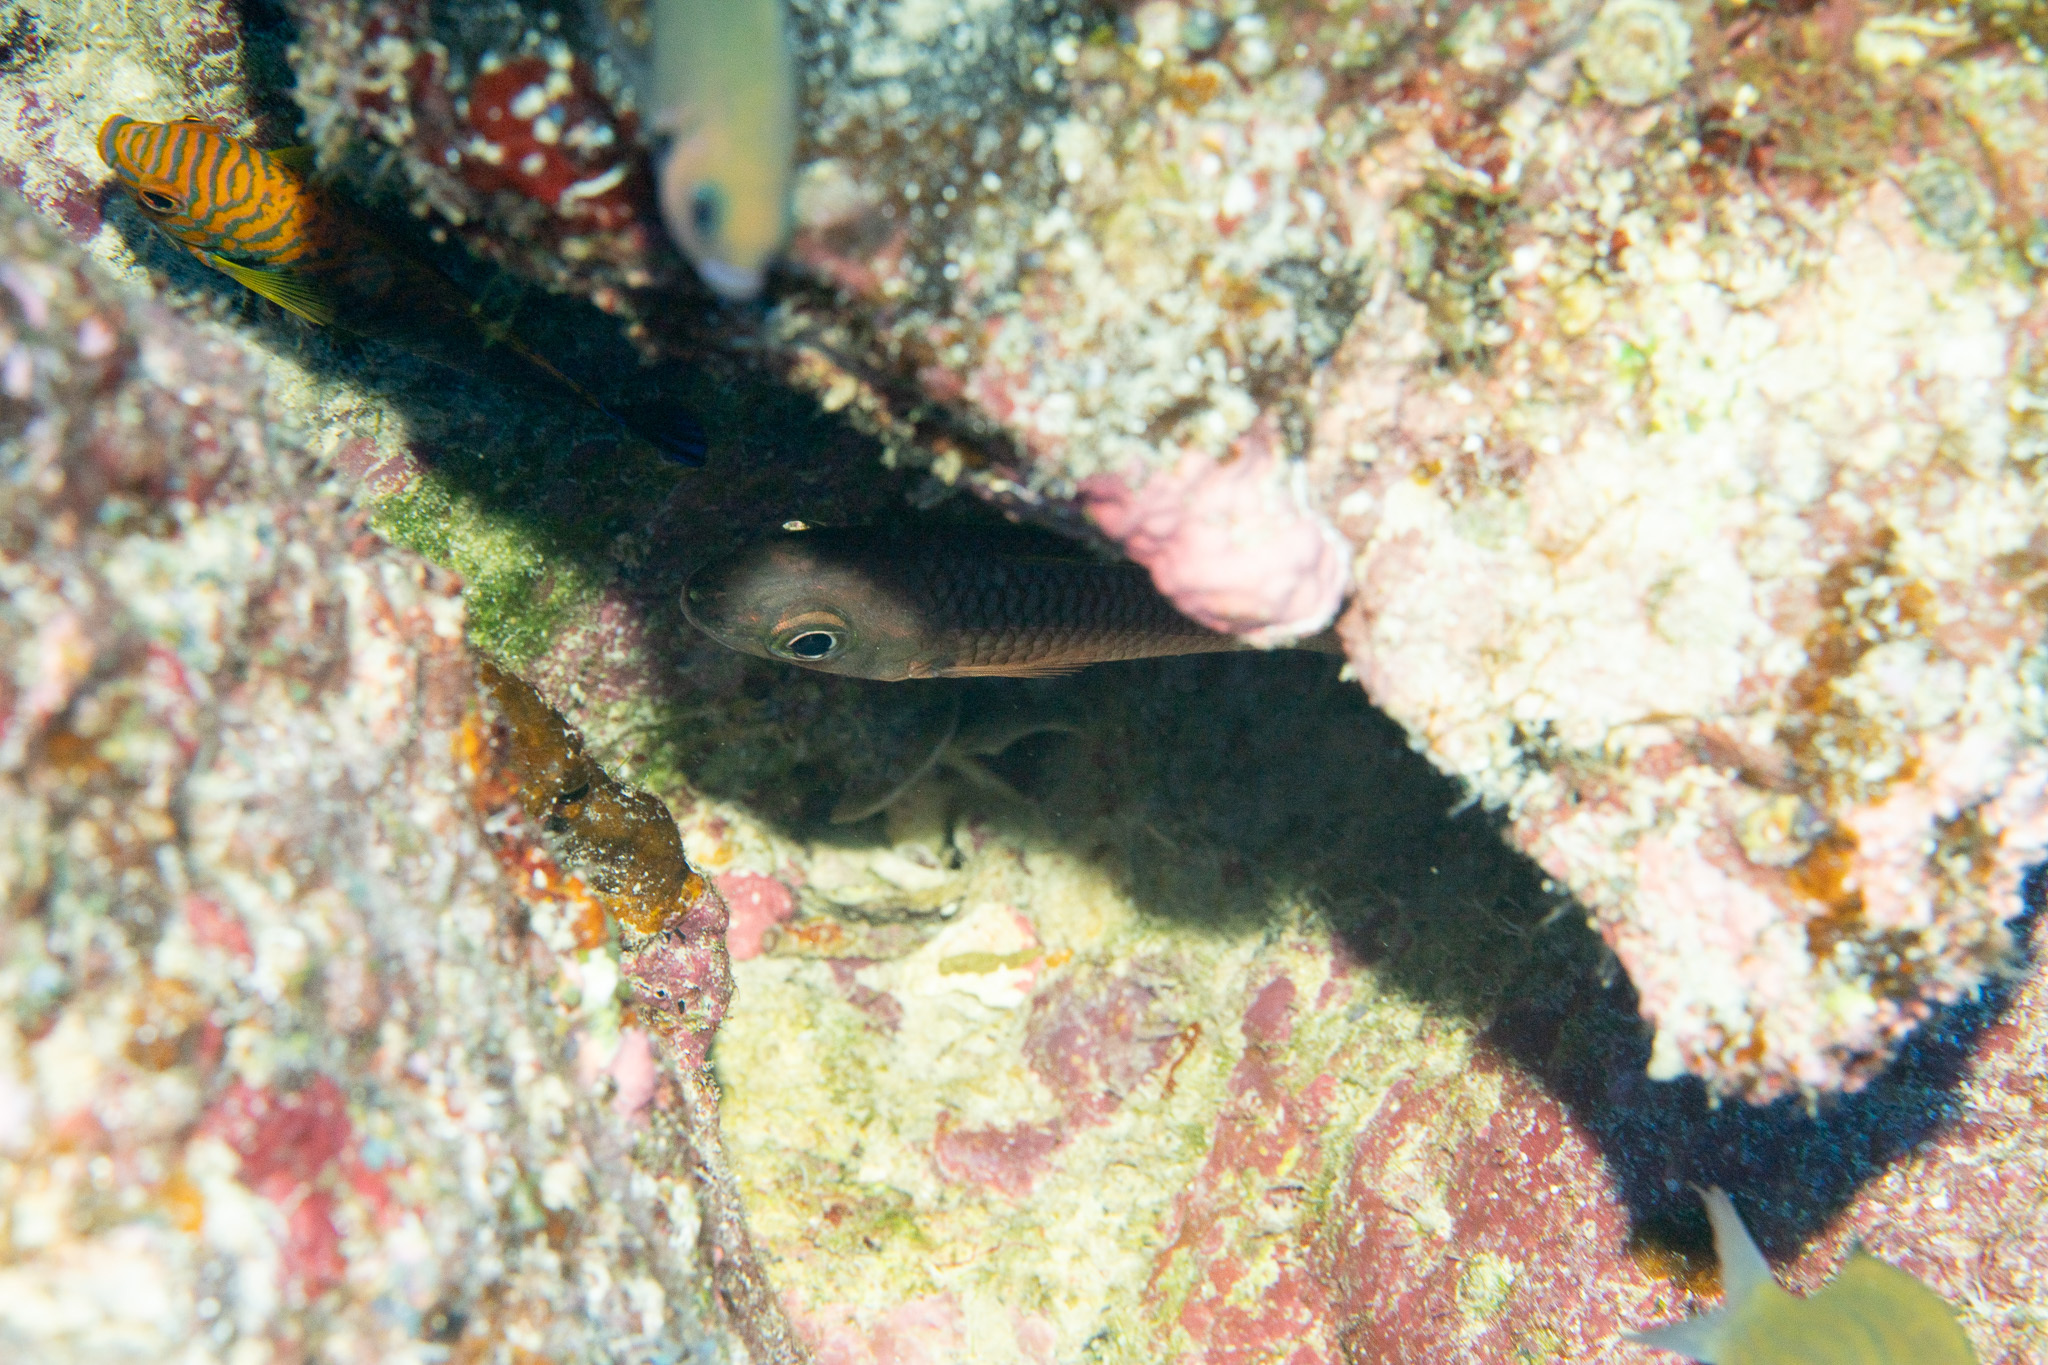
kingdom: Animalia
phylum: Chordata
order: Perciformes
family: Apogonidae
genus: Pristiapogon
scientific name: Pristiapogon kallopterus
